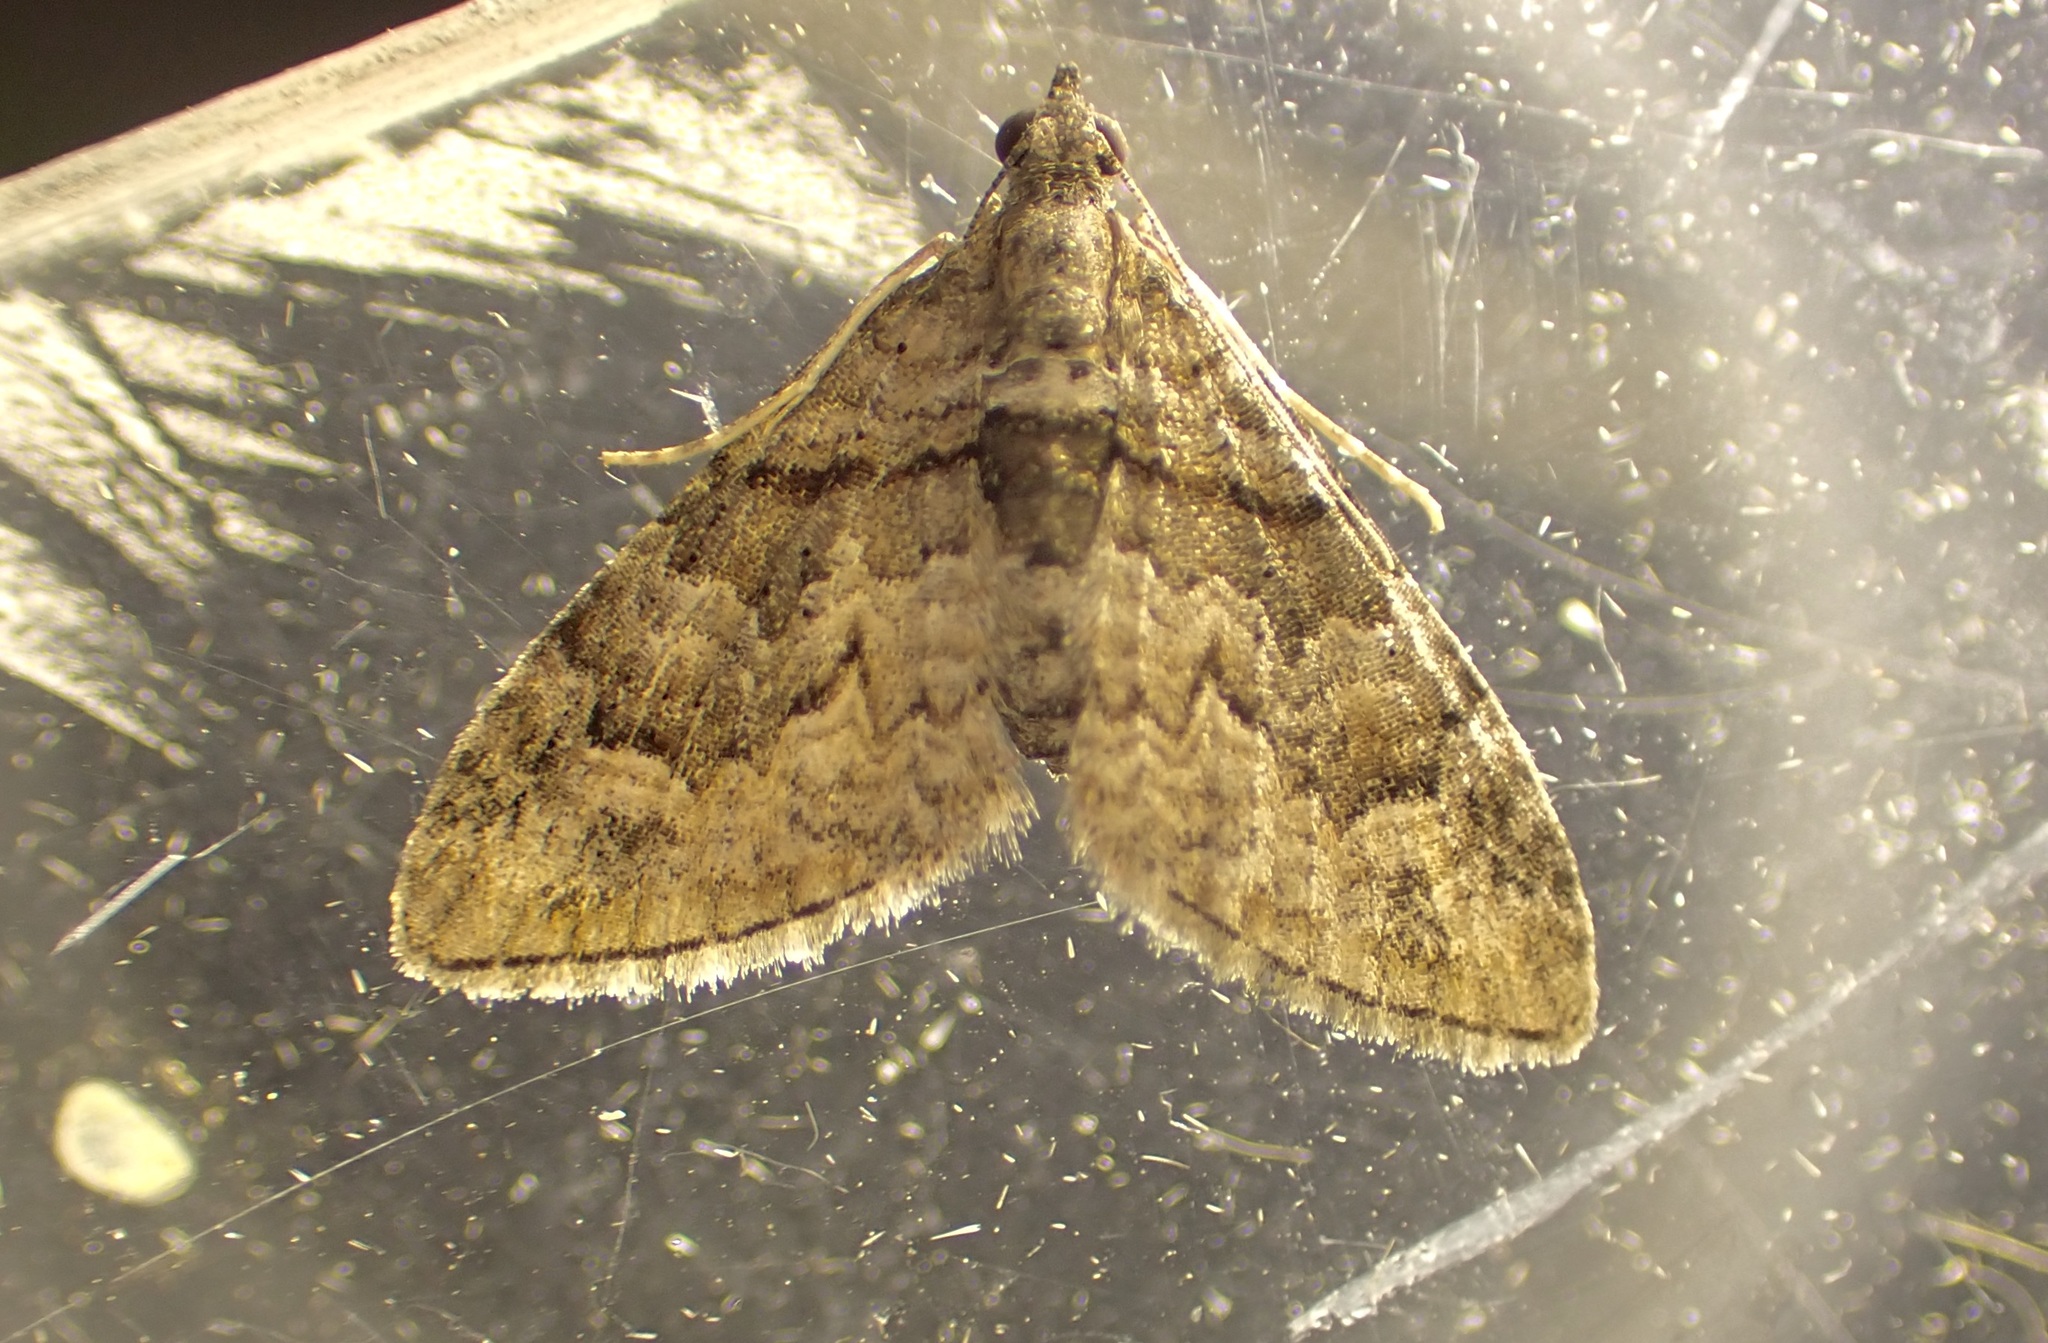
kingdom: Animalia
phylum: Arthropoda
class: Insecta
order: Lepidoptera
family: Geometridae
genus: Phrissogonus
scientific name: Phrissogonus laticostata
